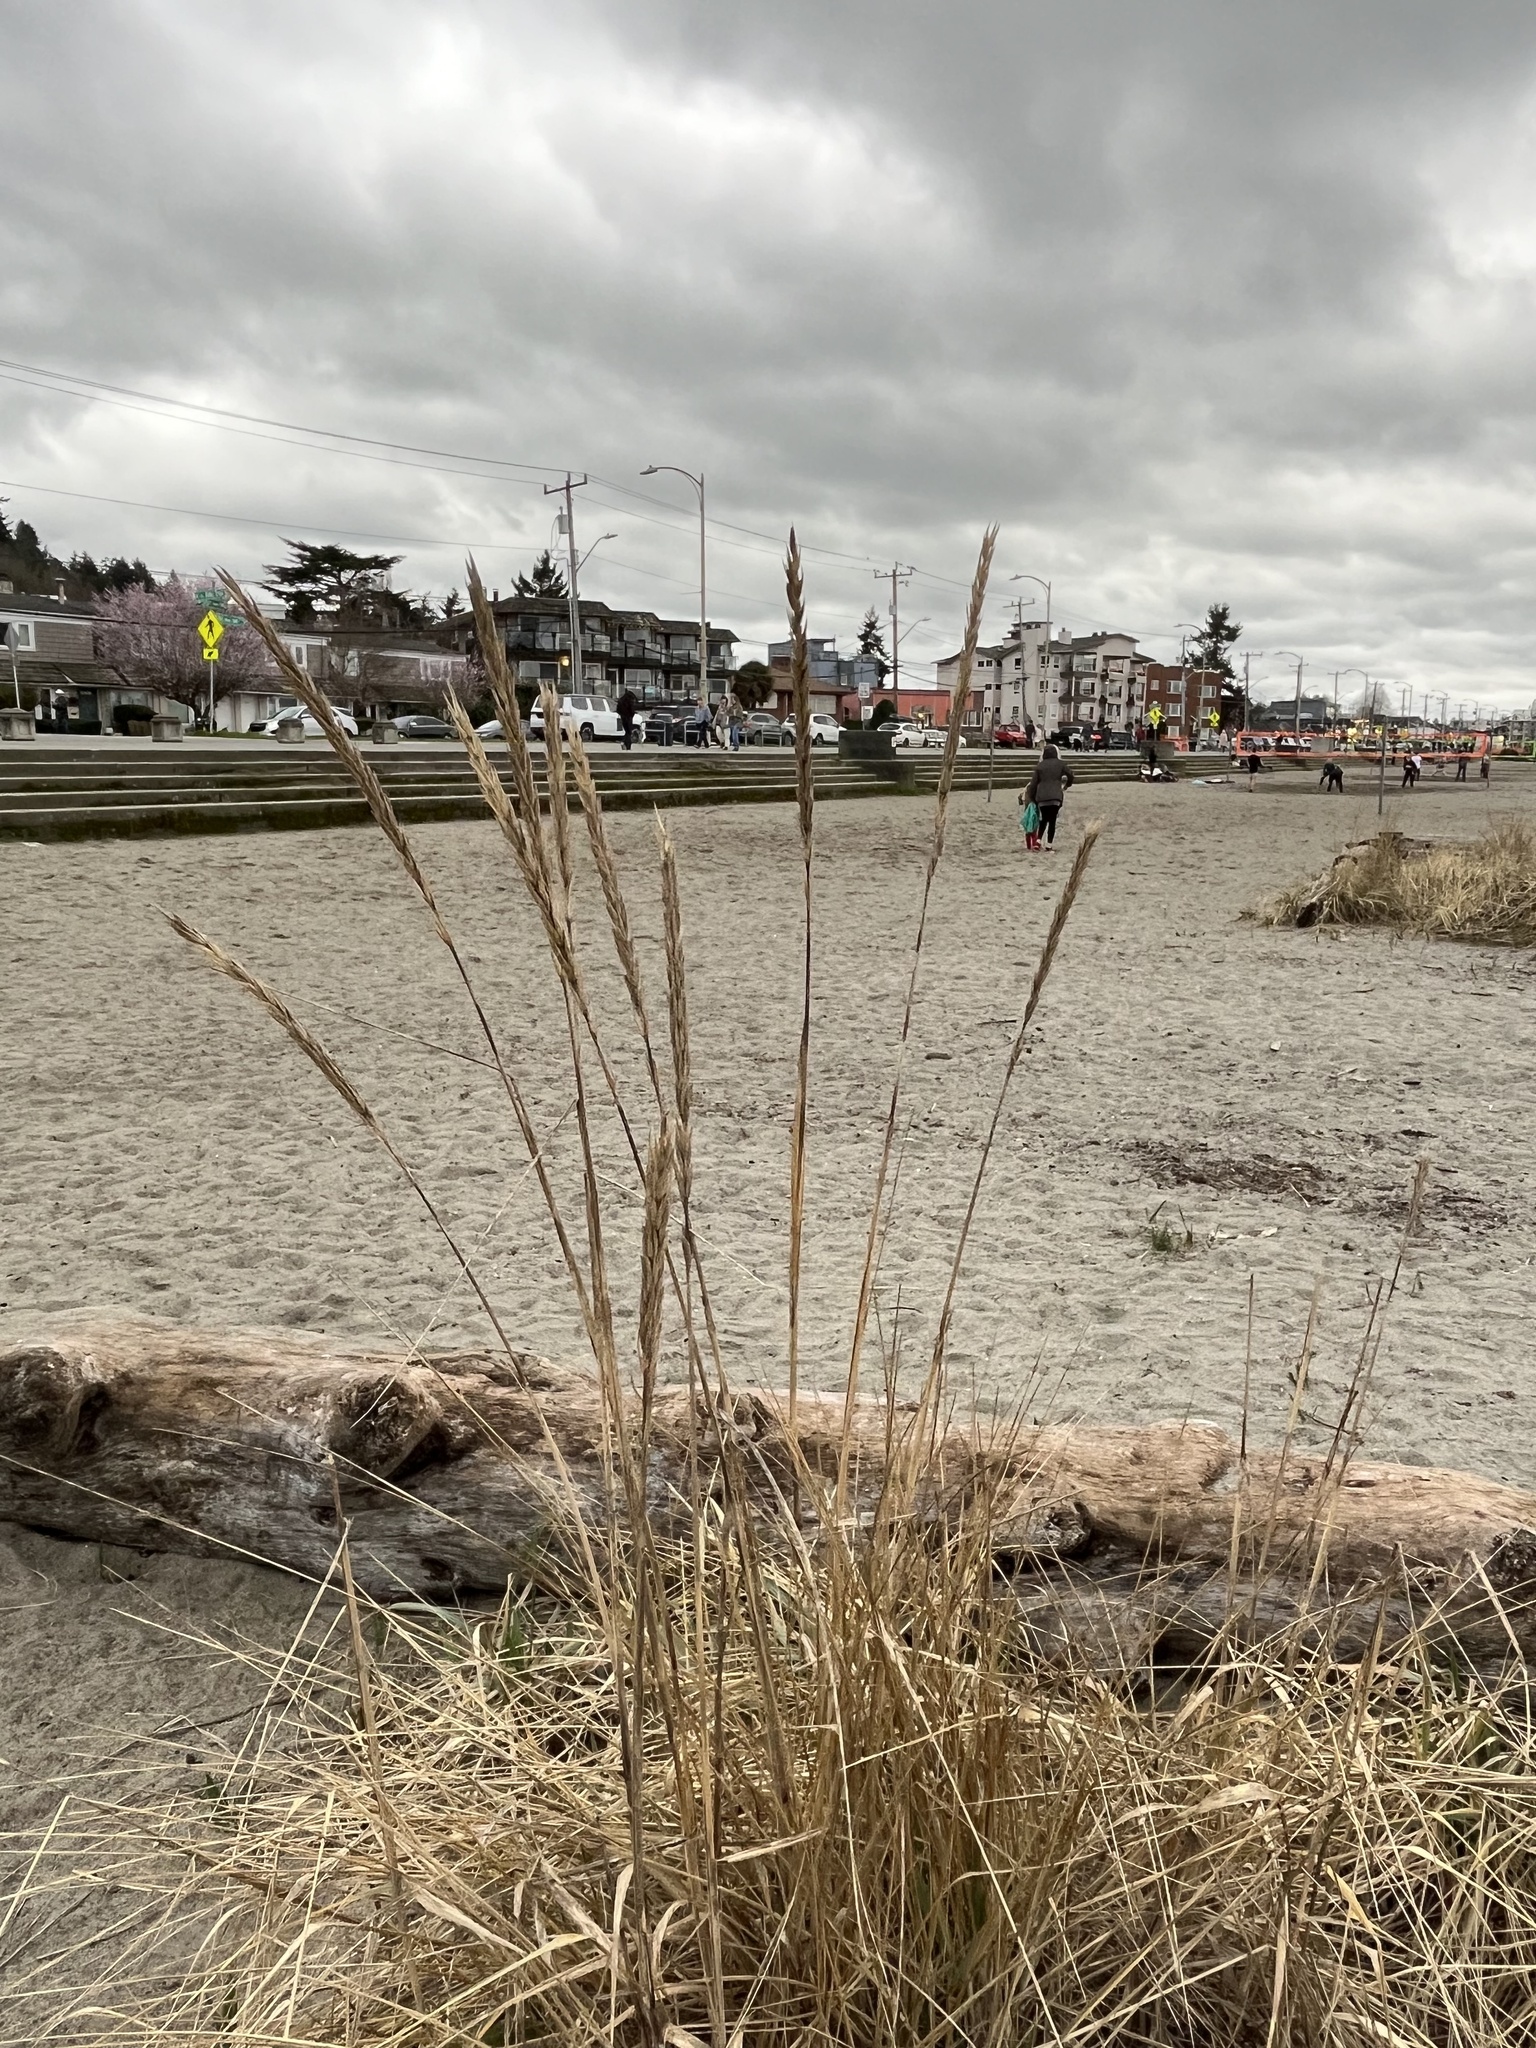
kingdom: Plantae
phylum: Tracheophyta
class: Liliopsida
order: Poales
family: Poaceae
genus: Leymus
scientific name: Leymus mollis
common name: American dune grass
